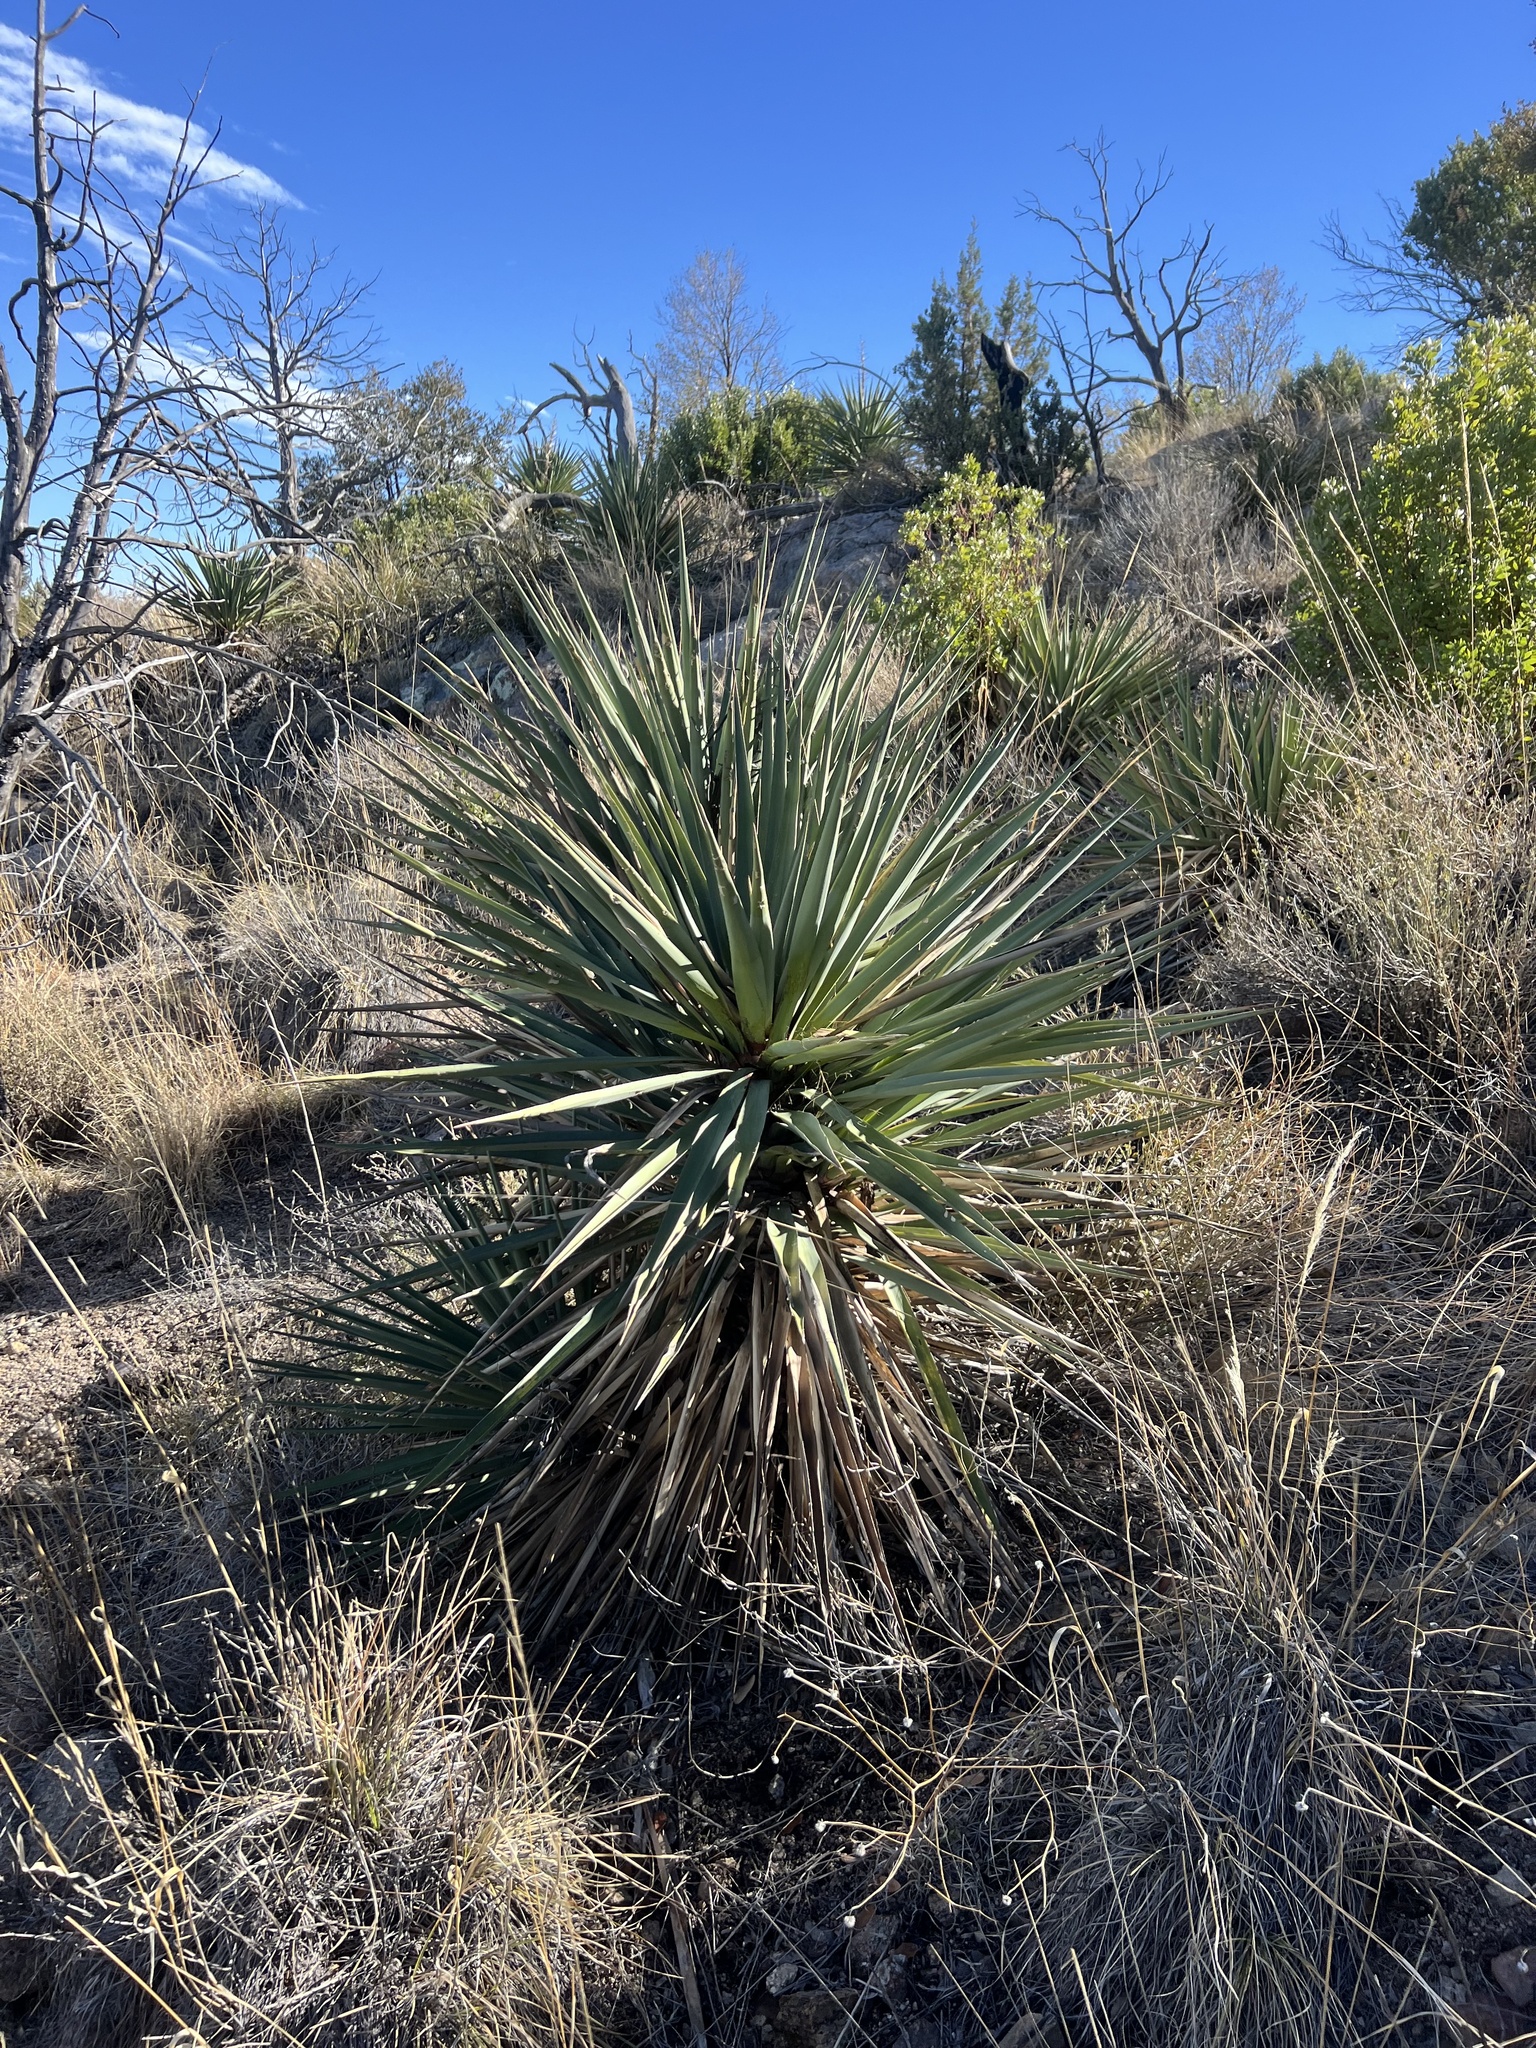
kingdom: Plantae
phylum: Tracheophyta
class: Liliopsida
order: Asparagales
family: Asparagaceae
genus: Yucca
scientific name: Yucca madrensis
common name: Hoary yucca
